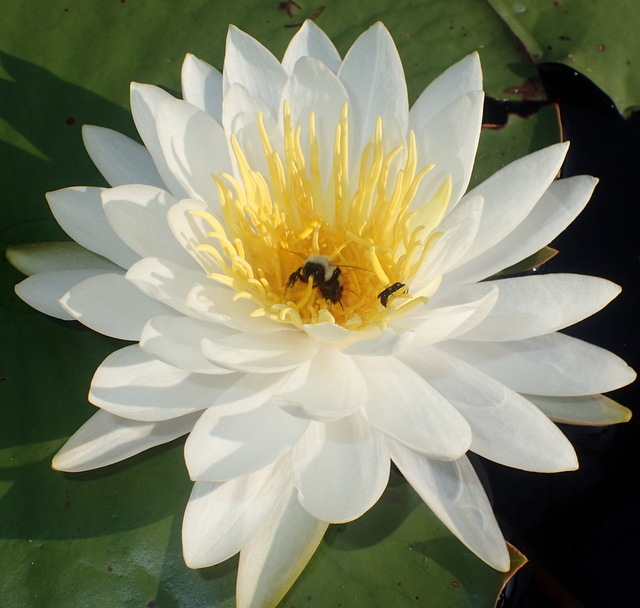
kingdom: Animalia
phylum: Arthropoda
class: Insecta
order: Hymenoptera
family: Apidae
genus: Bombus
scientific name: Bombus impatiens
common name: Common eastern bumble bee
